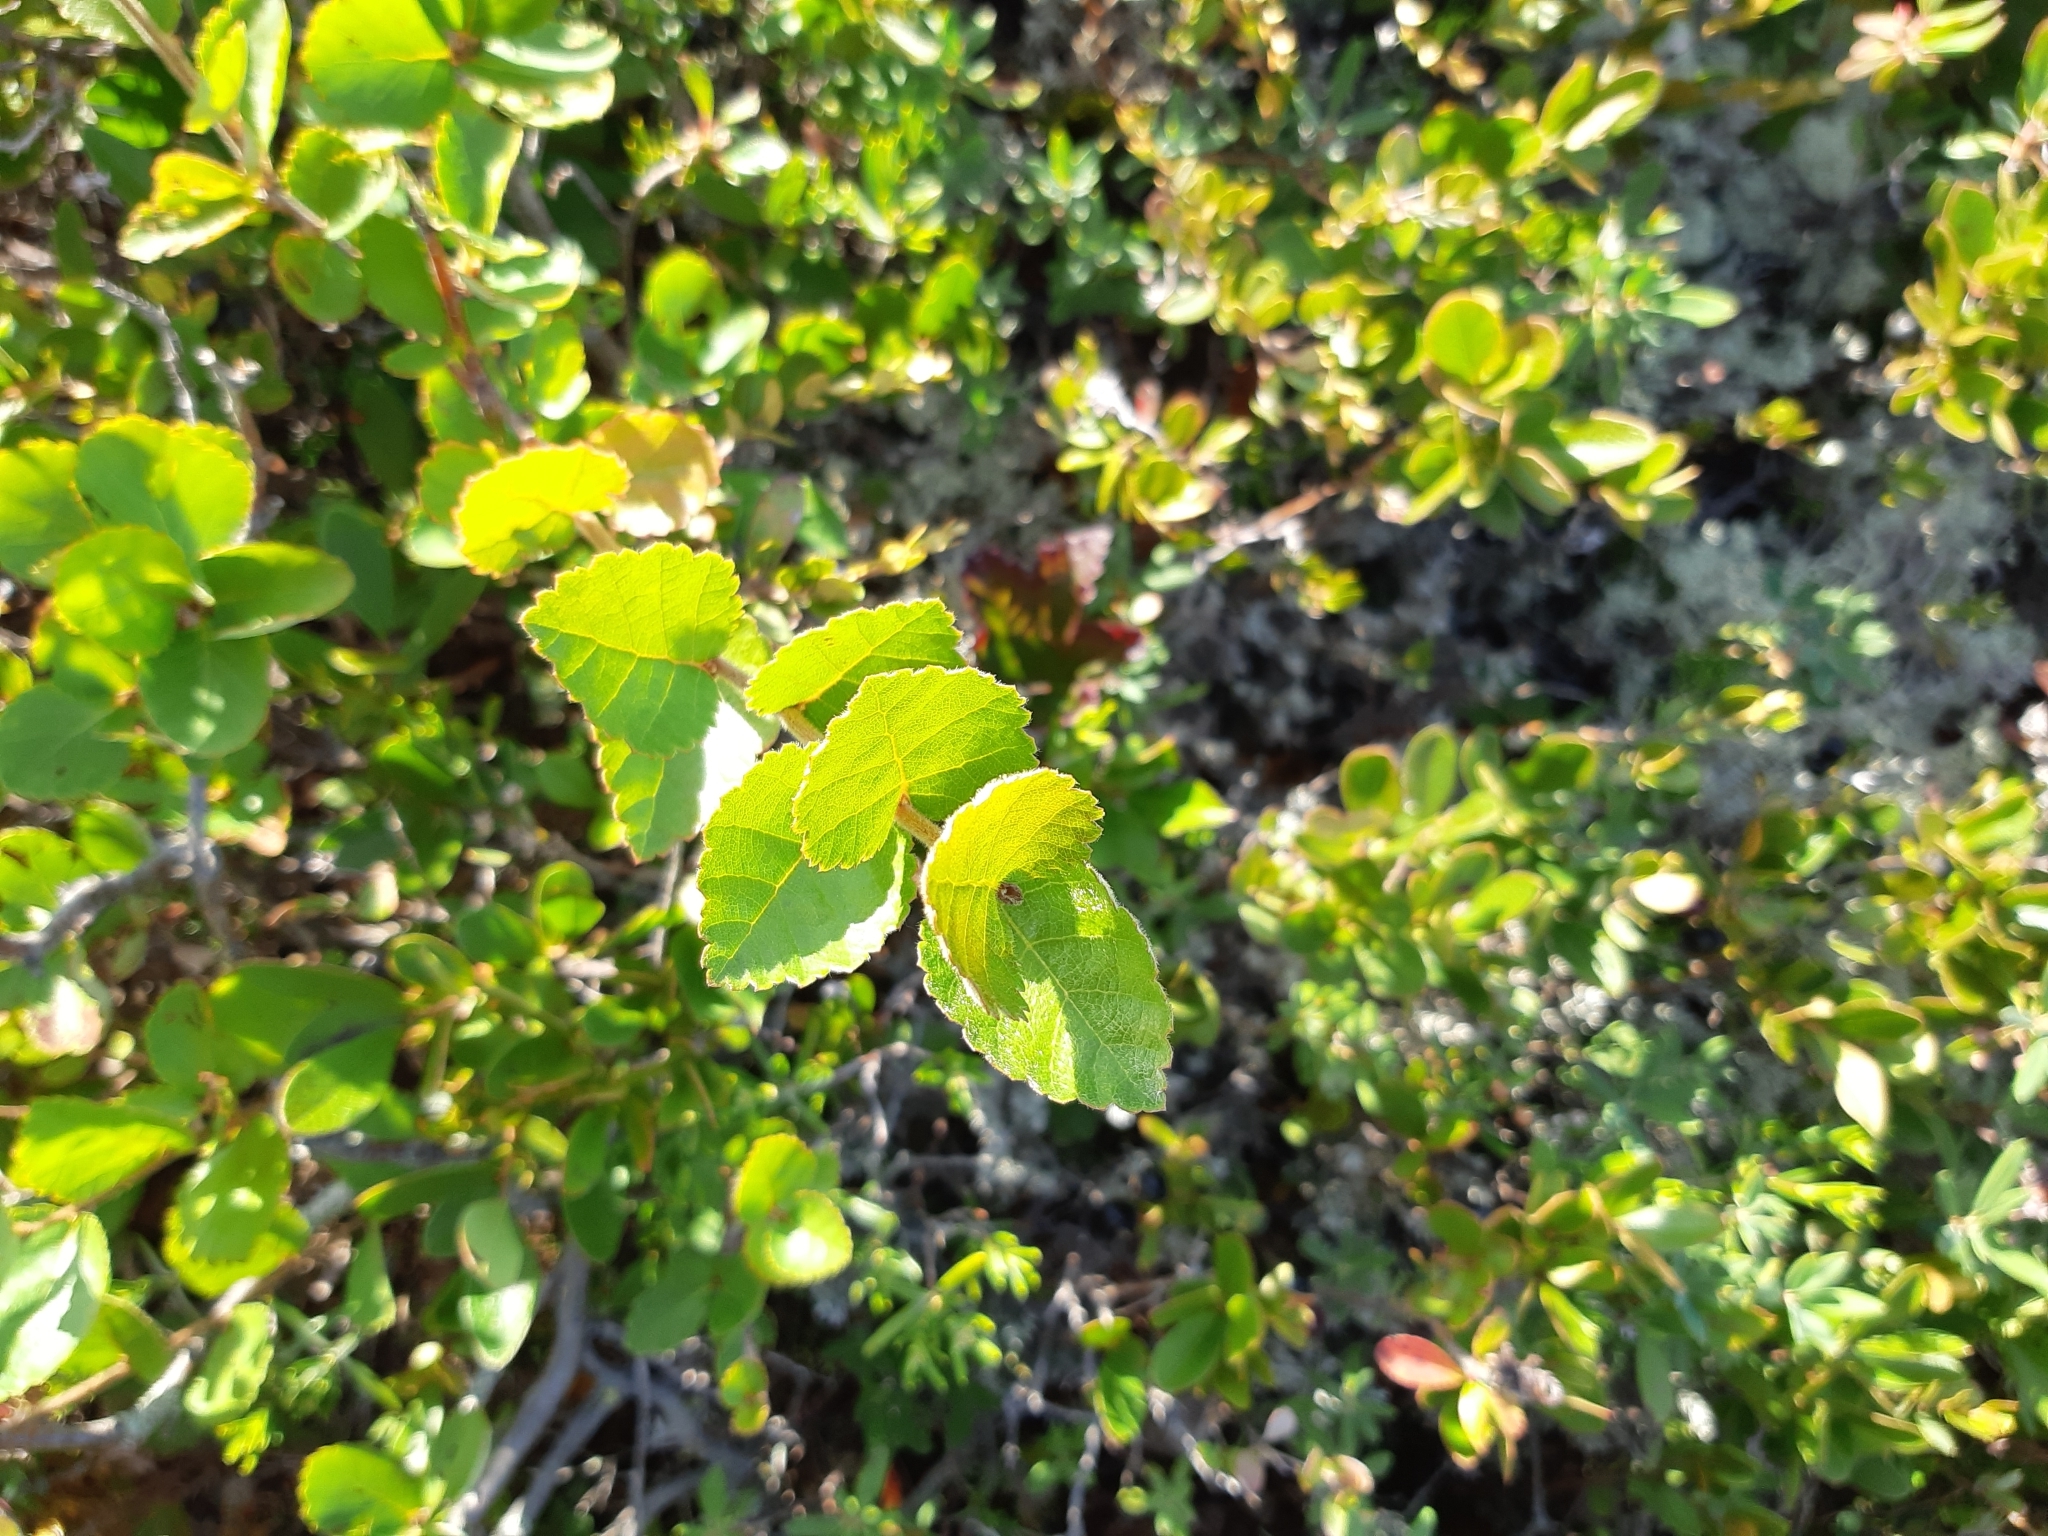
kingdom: Plantae
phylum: Tracheophyta
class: Magnoliopsida
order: Fagales
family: Betulaceae
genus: Betula
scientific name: Betula pumila
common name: Bog birch
